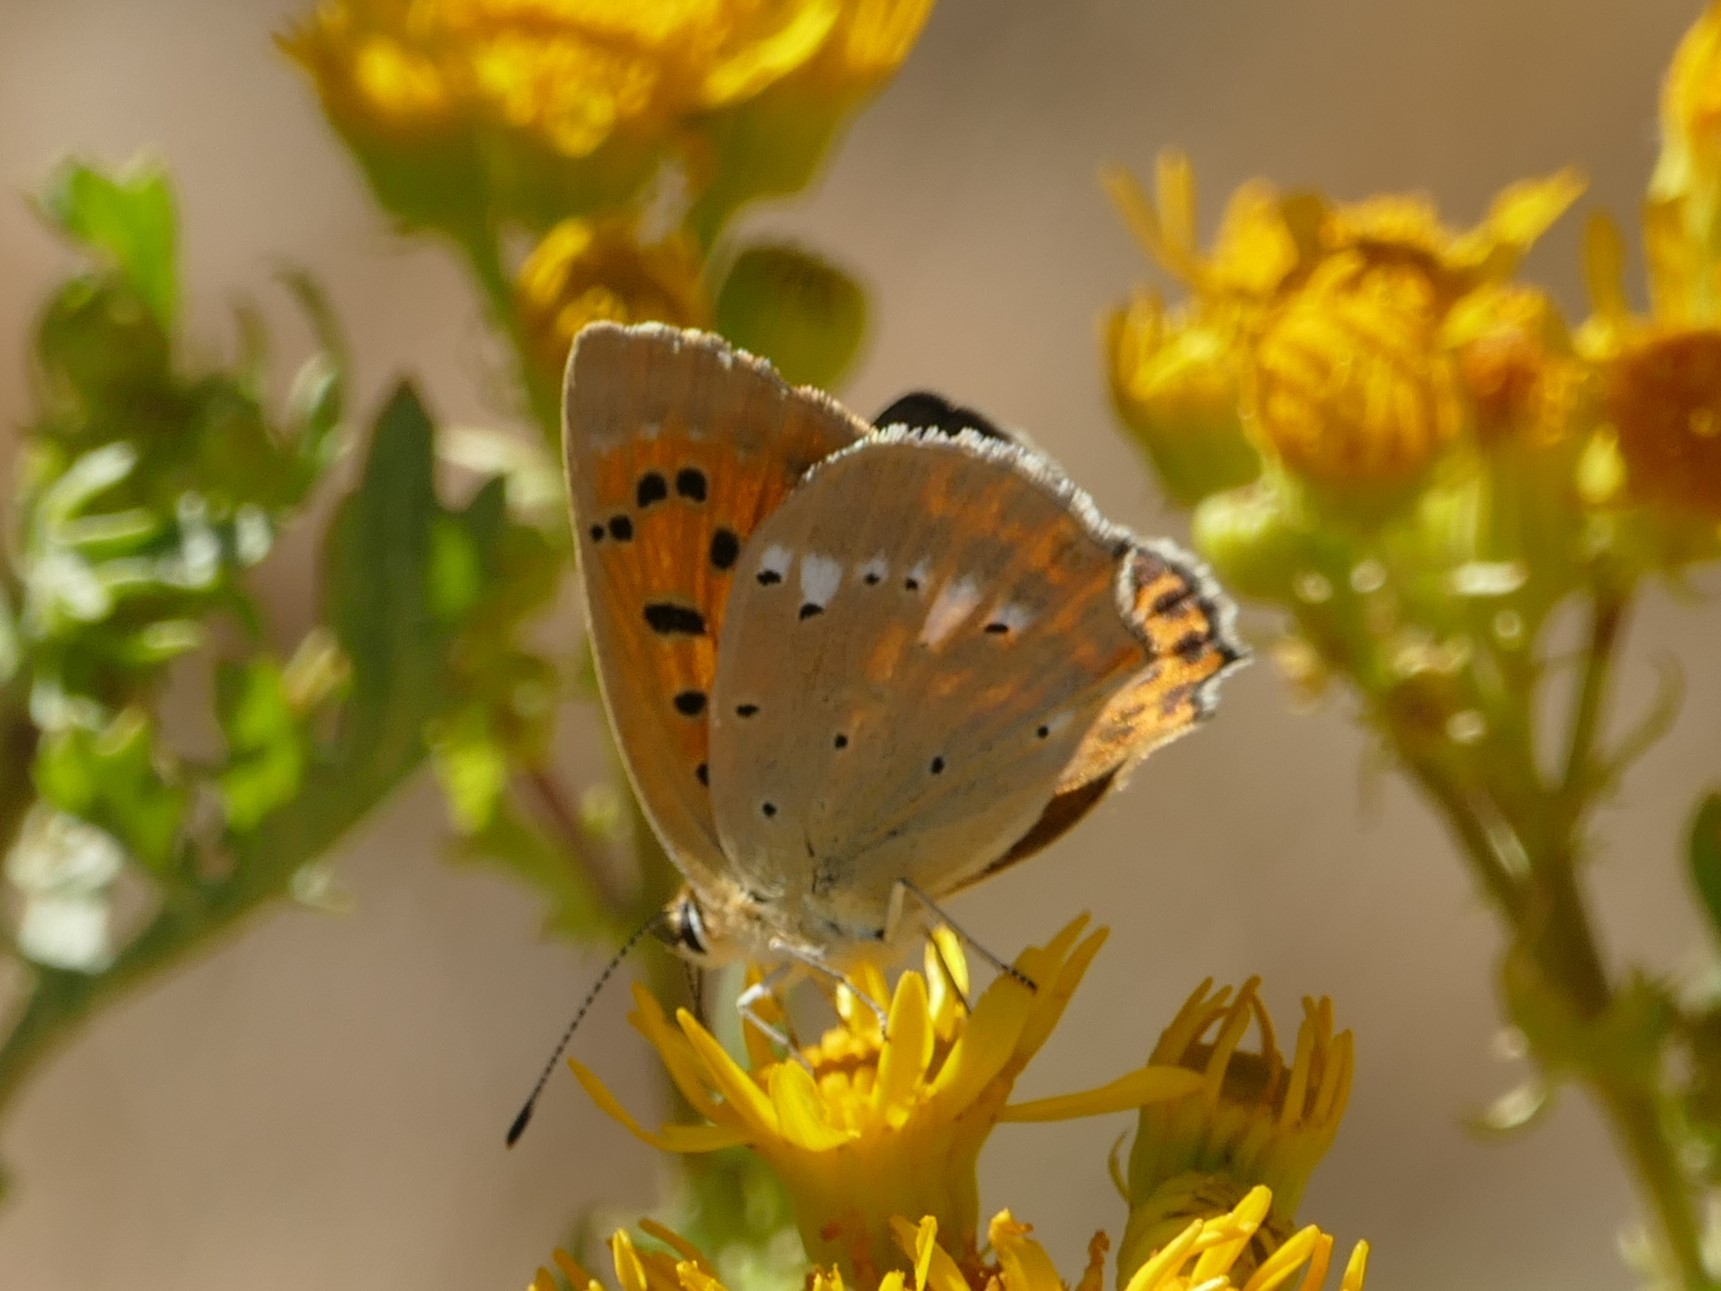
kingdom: Animalia
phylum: Arthropoda
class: Insecta
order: Lepidoptera
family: Lycaenidae
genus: Lycaena
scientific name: Lycaena virgaureae
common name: Scarce copper
